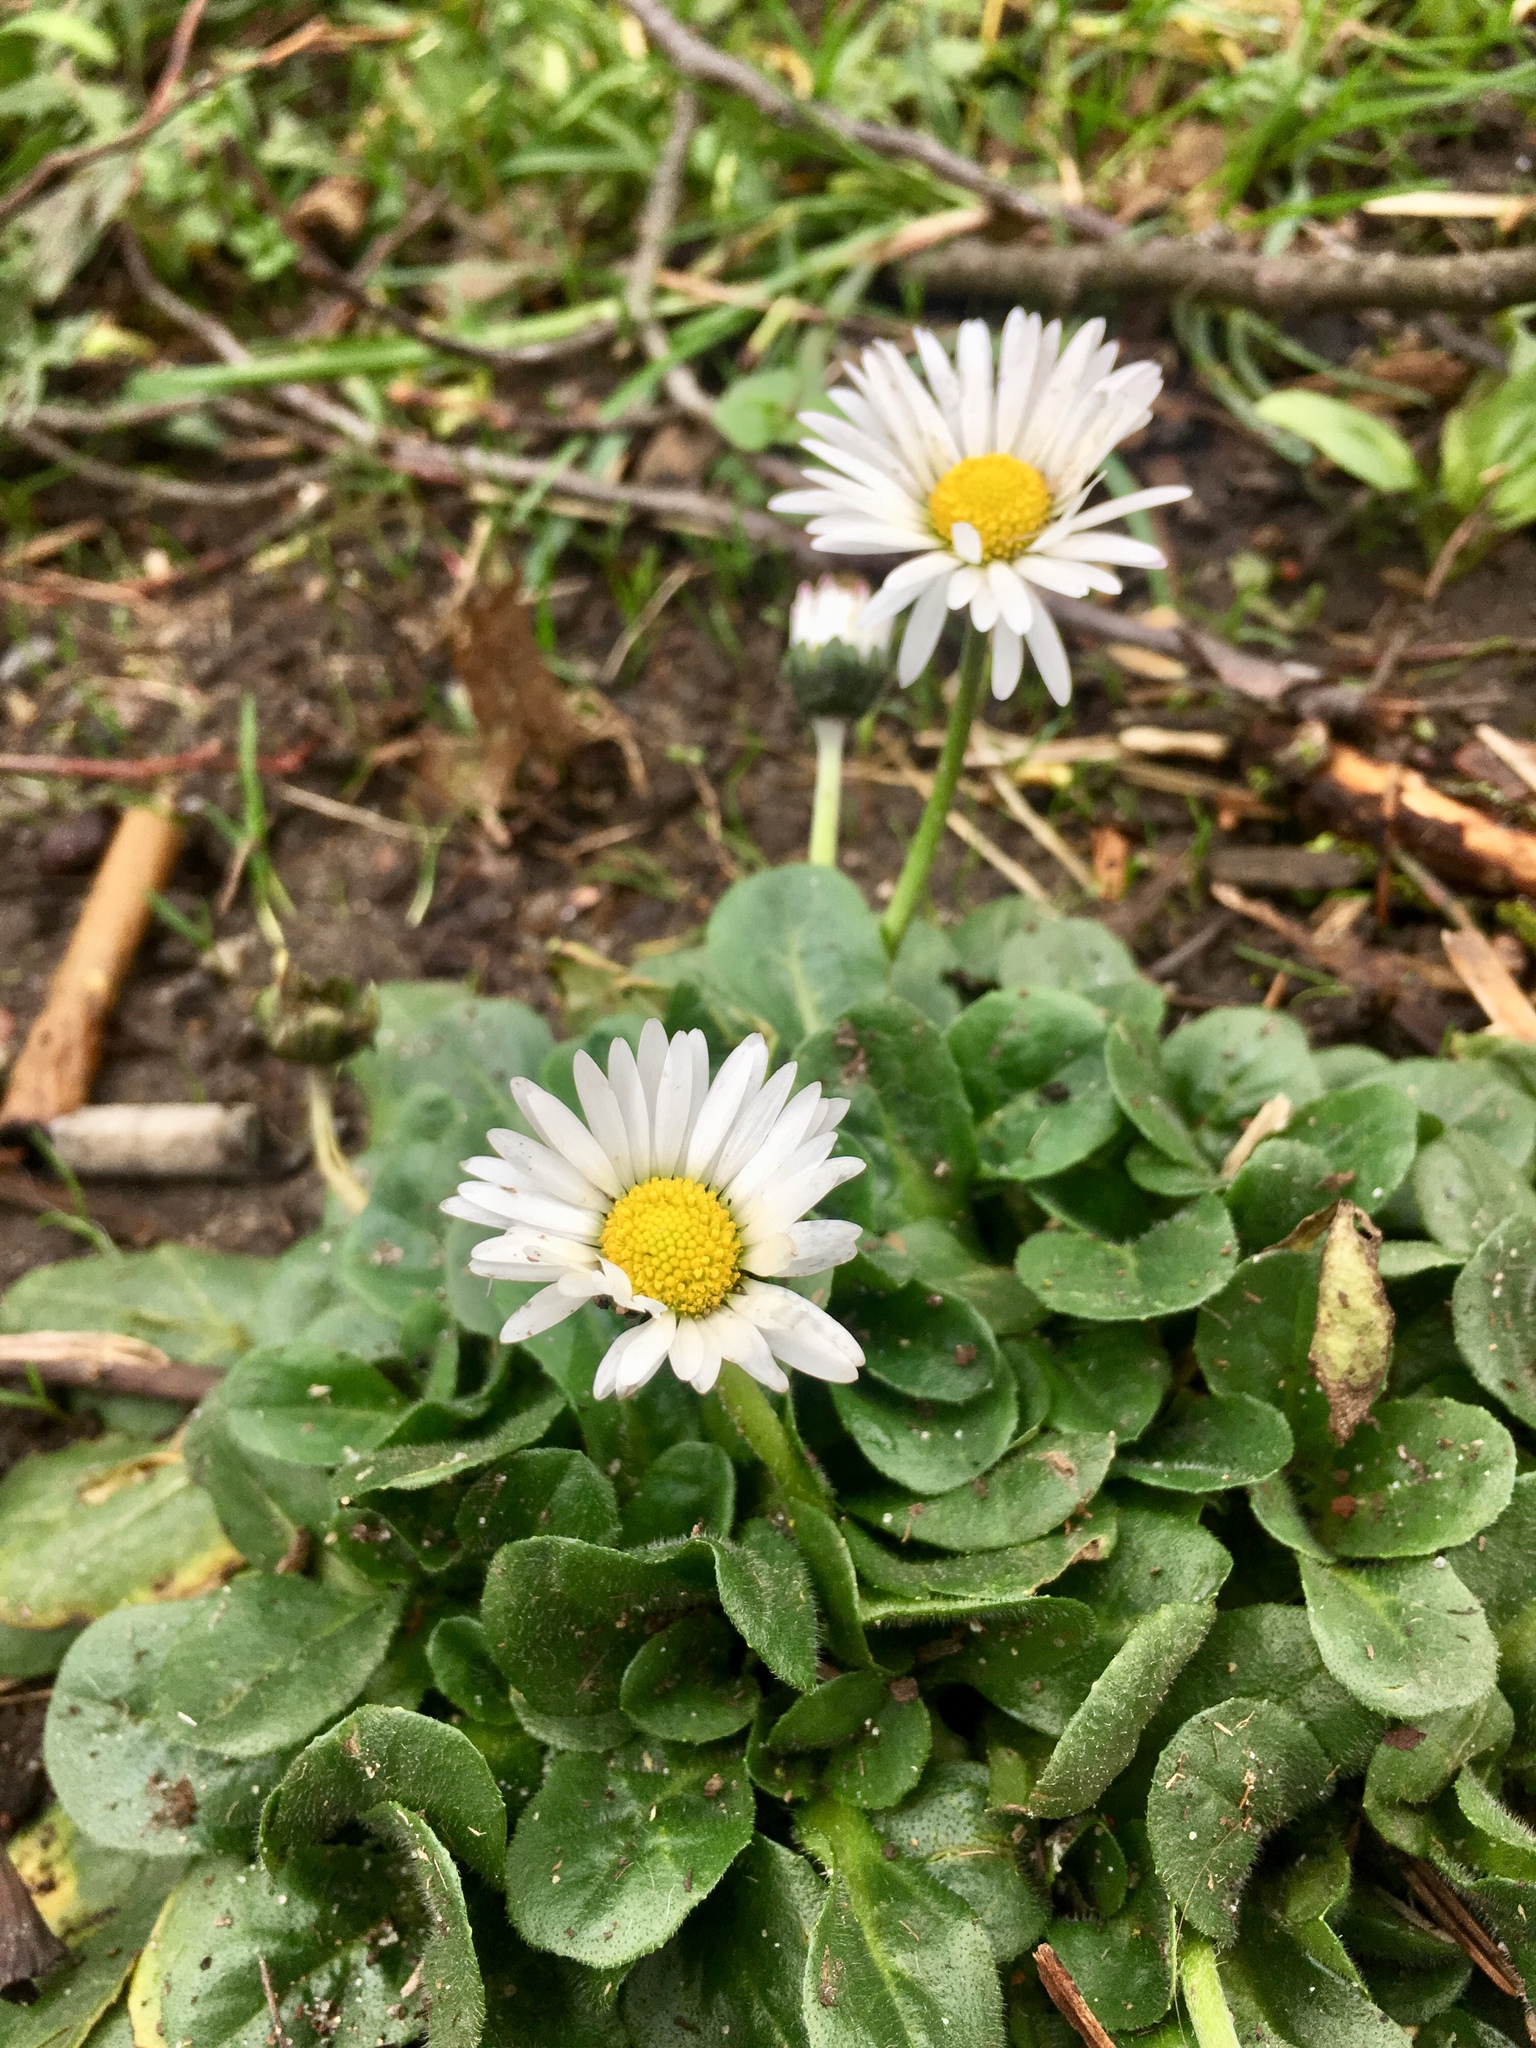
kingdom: Plantae
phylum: Tracheophyta
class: Magnoliopsida
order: Asterales
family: Asteraceae
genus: Bellis
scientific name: Bellis perennis
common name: Lawndaisy
